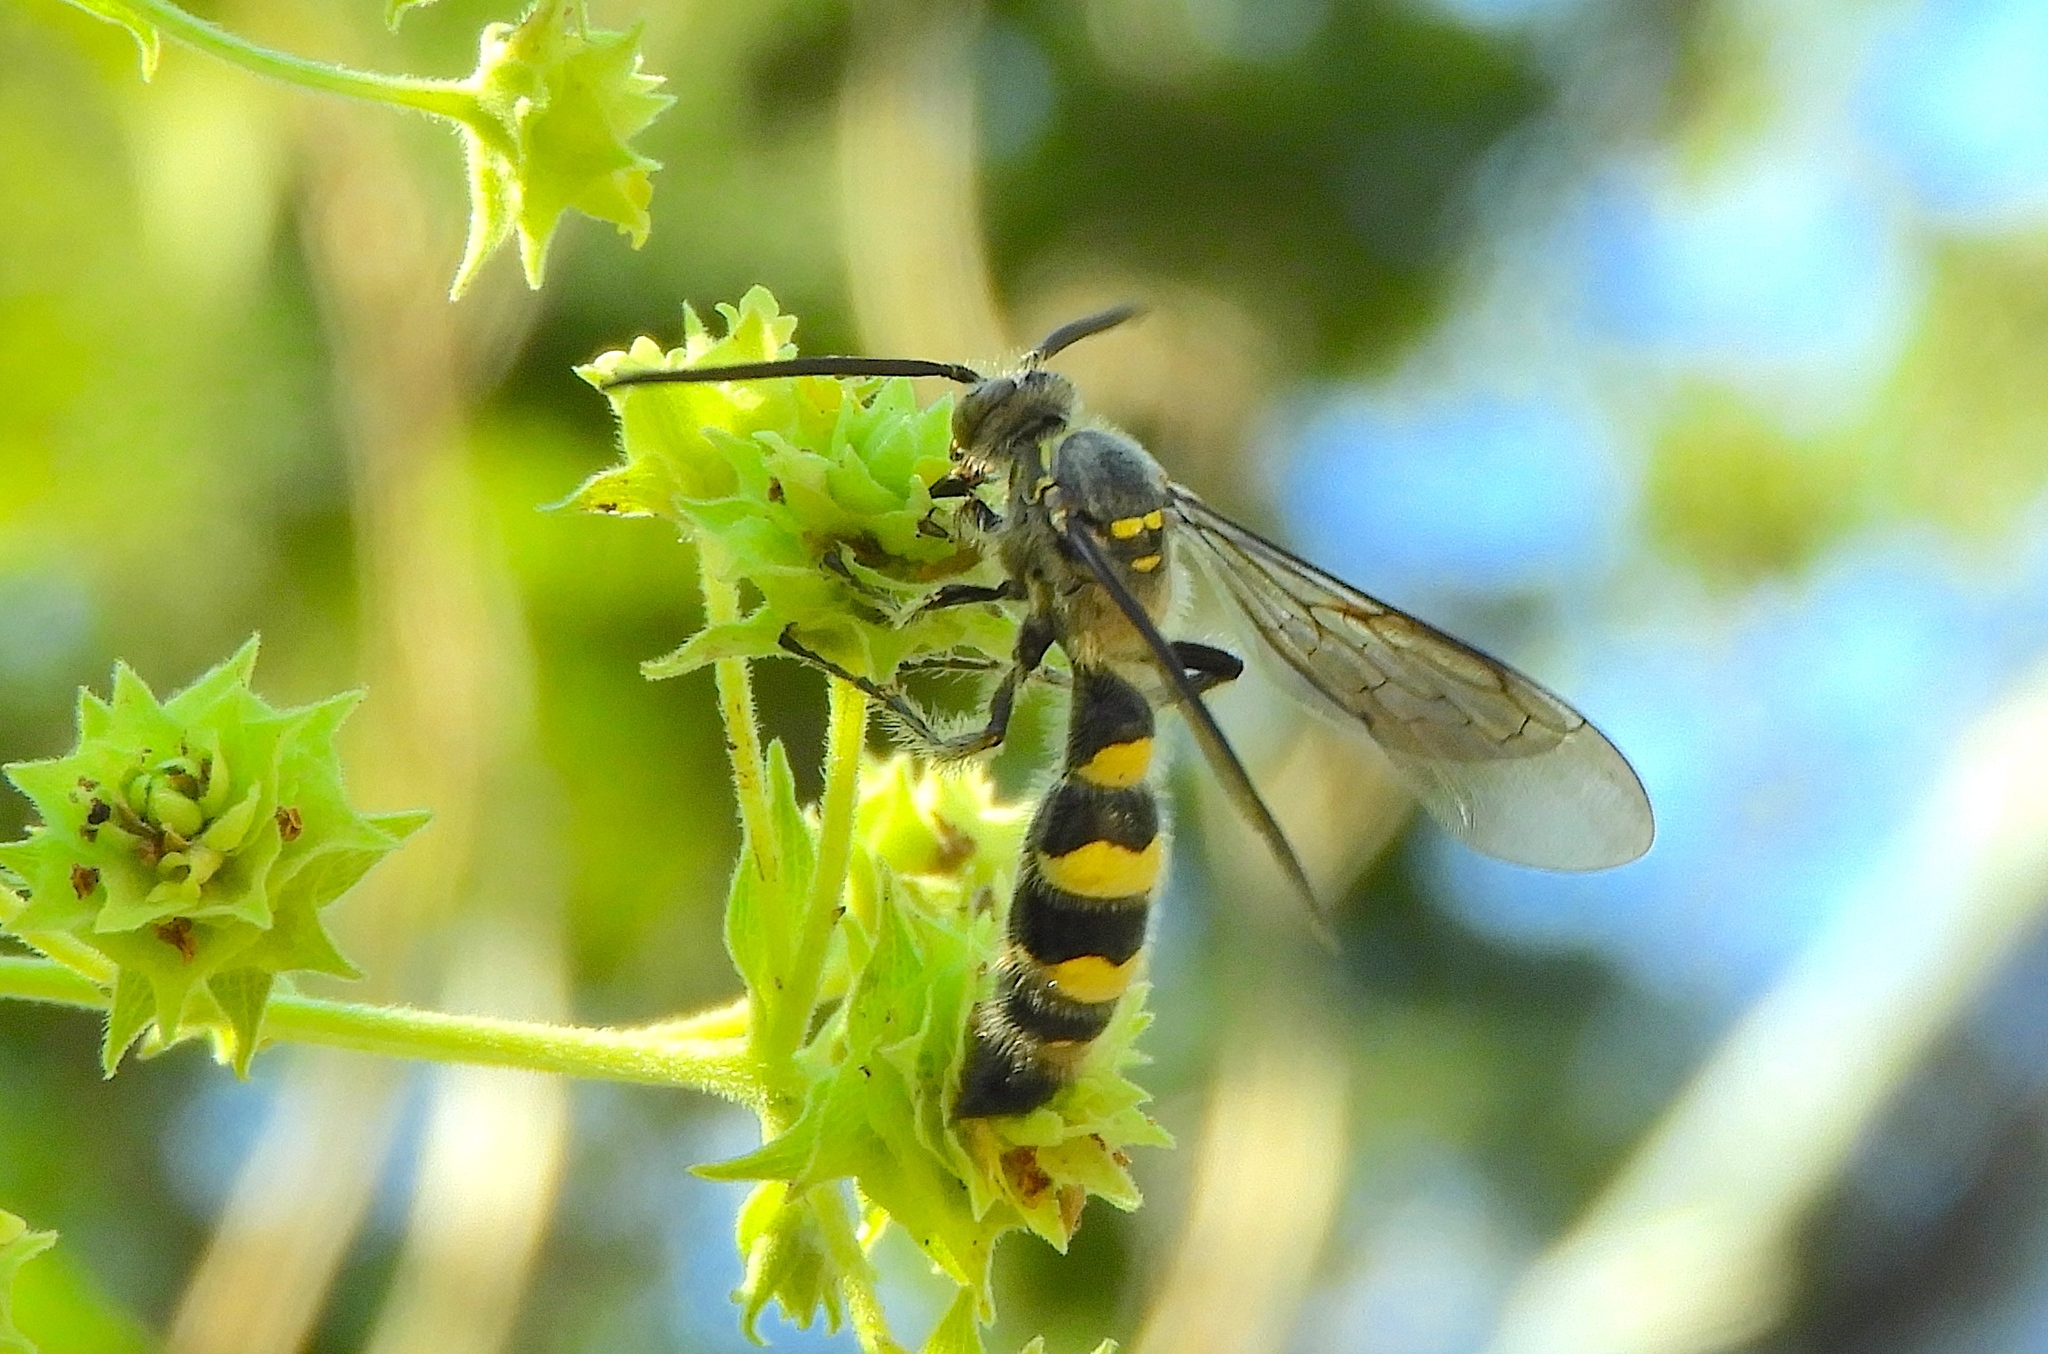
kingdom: Animalia
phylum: Arthropoda
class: Insecta
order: Hymenoptera
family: Scoliidae
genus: Dielis
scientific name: Dielis tolteca
